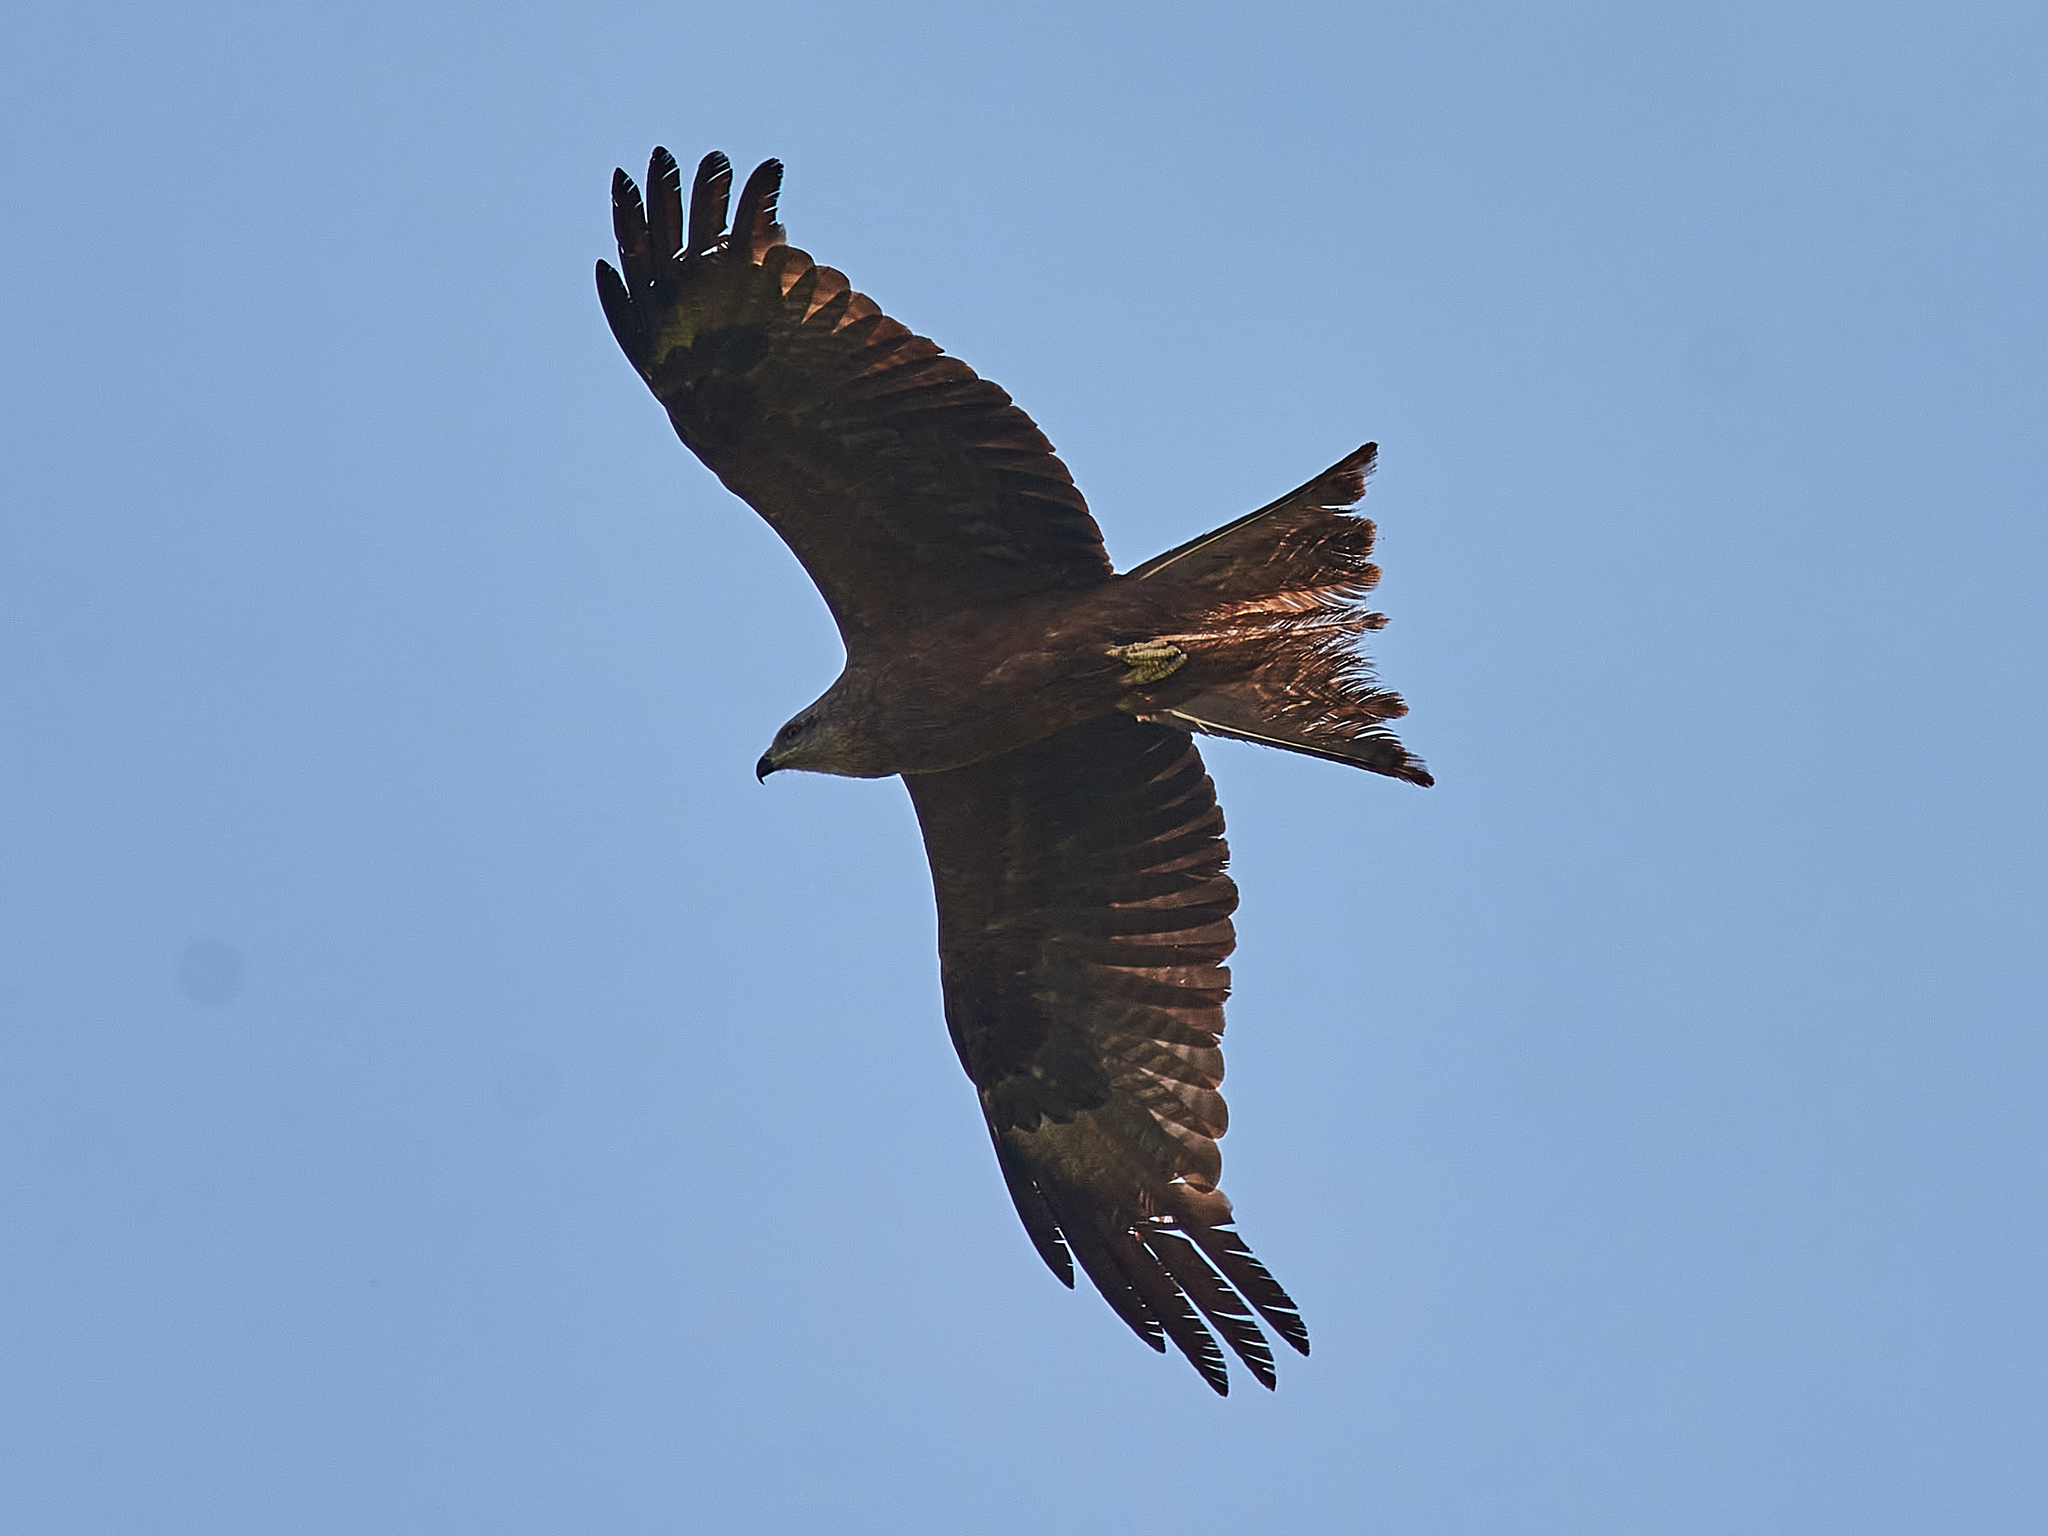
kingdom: Animalia
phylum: Chordata
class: Aves
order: Accipitriformes
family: Accipitridae
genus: Milvus
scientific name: Milvus migrans
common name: Black kite
